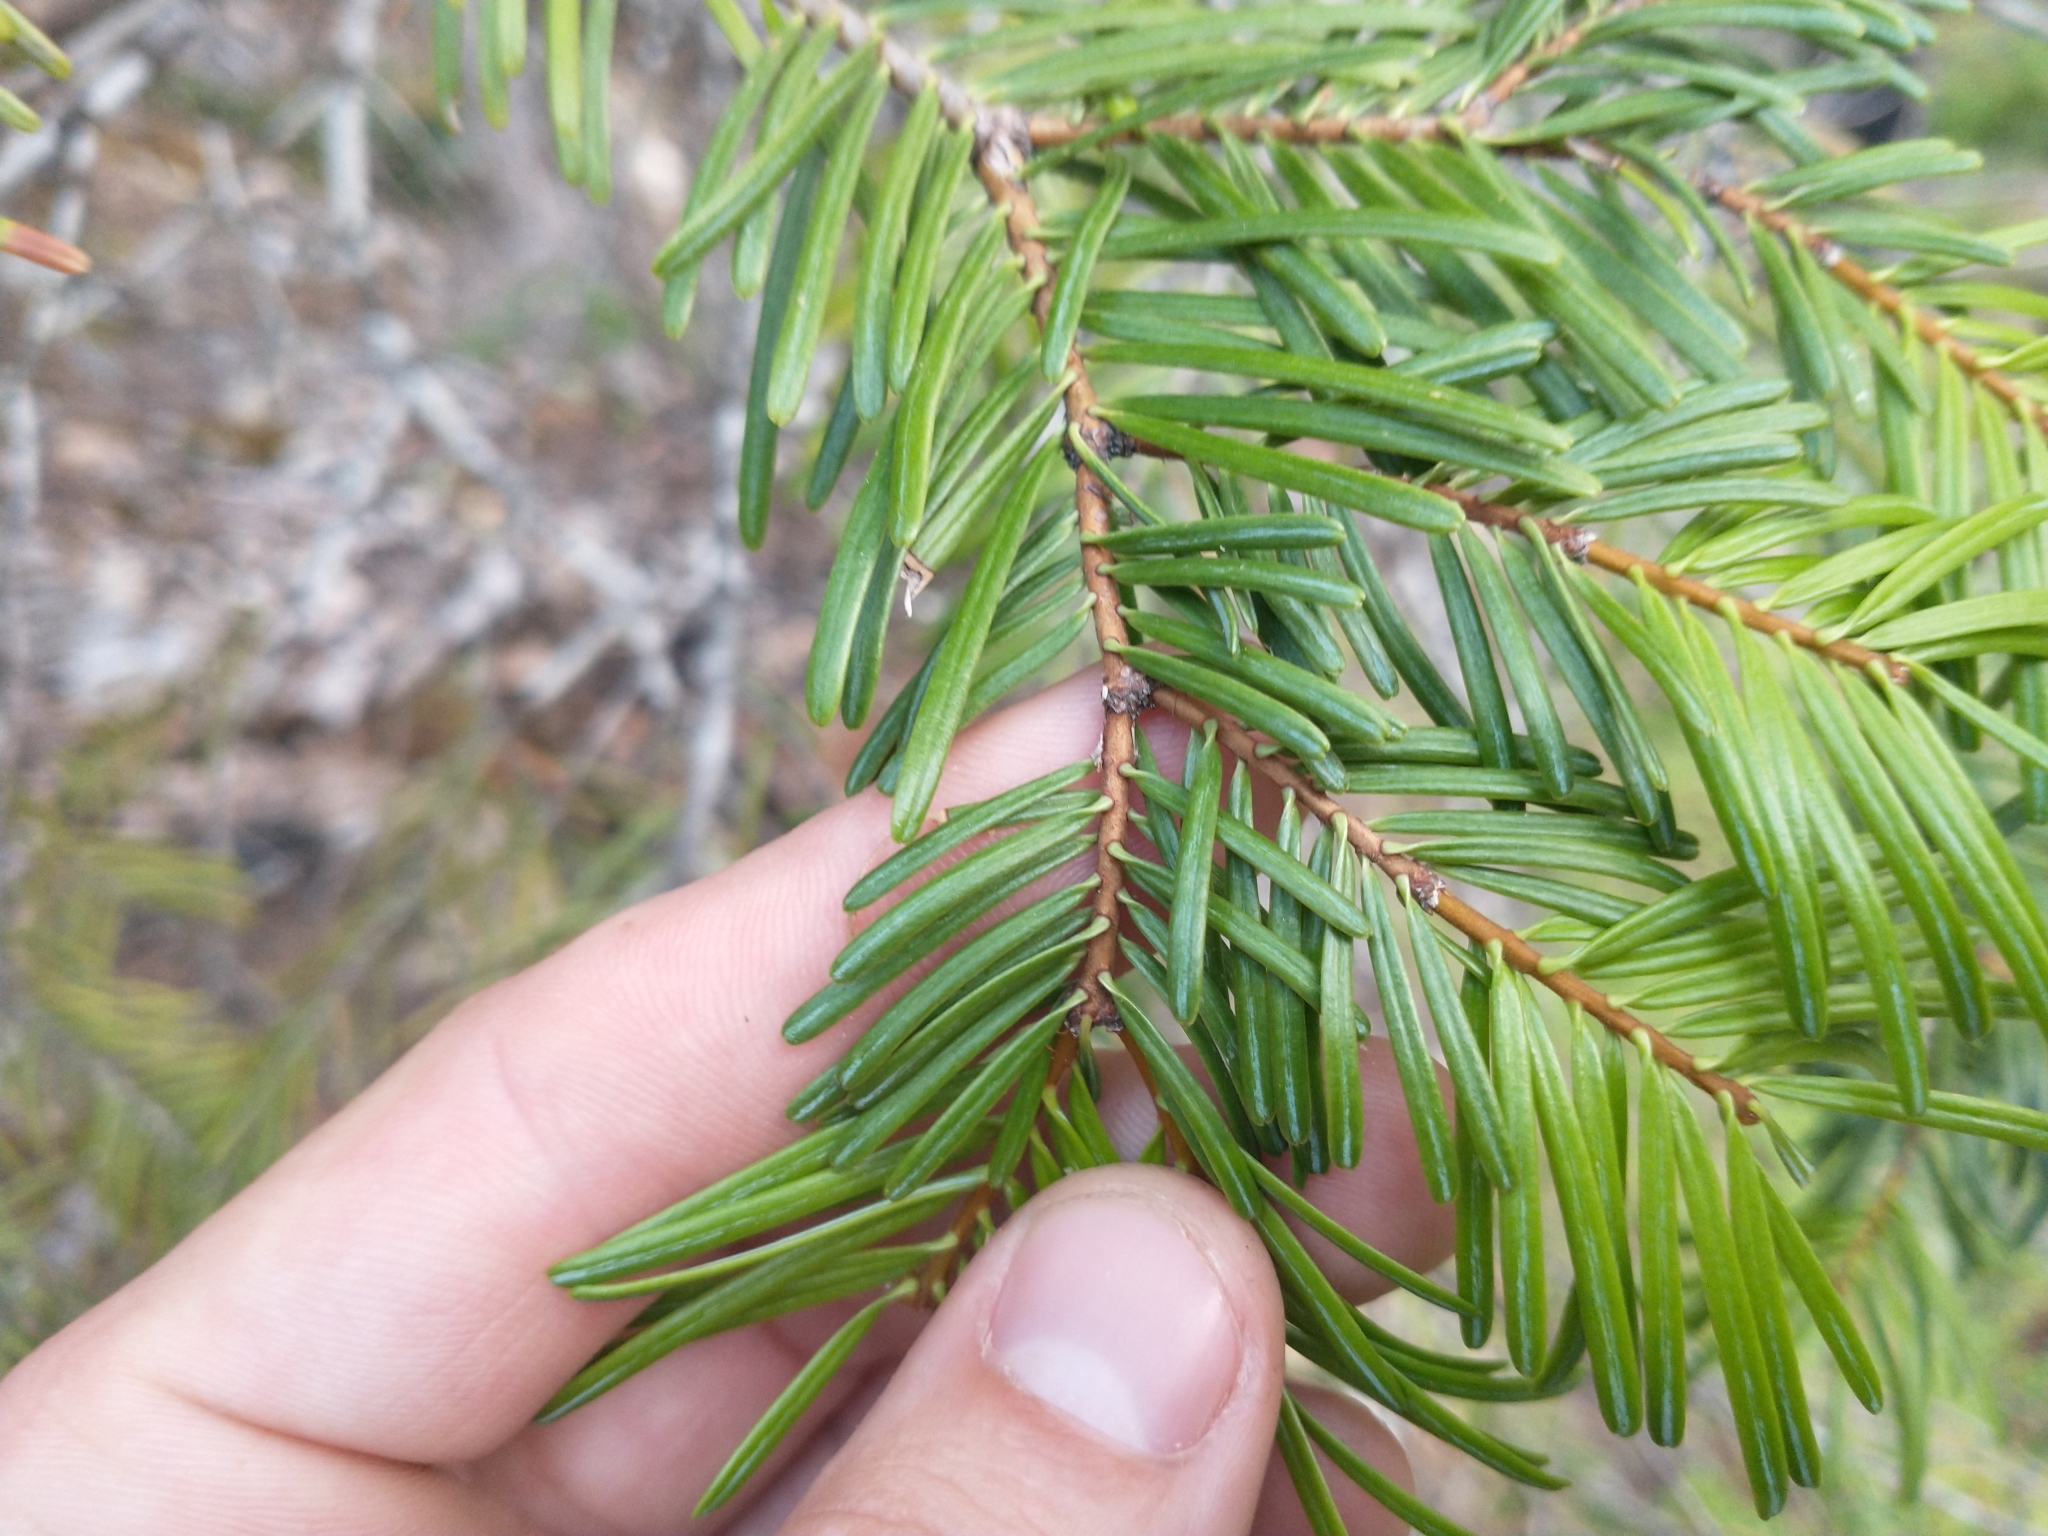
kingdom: Plantae
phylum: Tracheophyta
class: Pinopsida
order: Pinales
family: Pinaceae
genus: Abies
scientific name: Abies concolor
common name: Colorado fir
